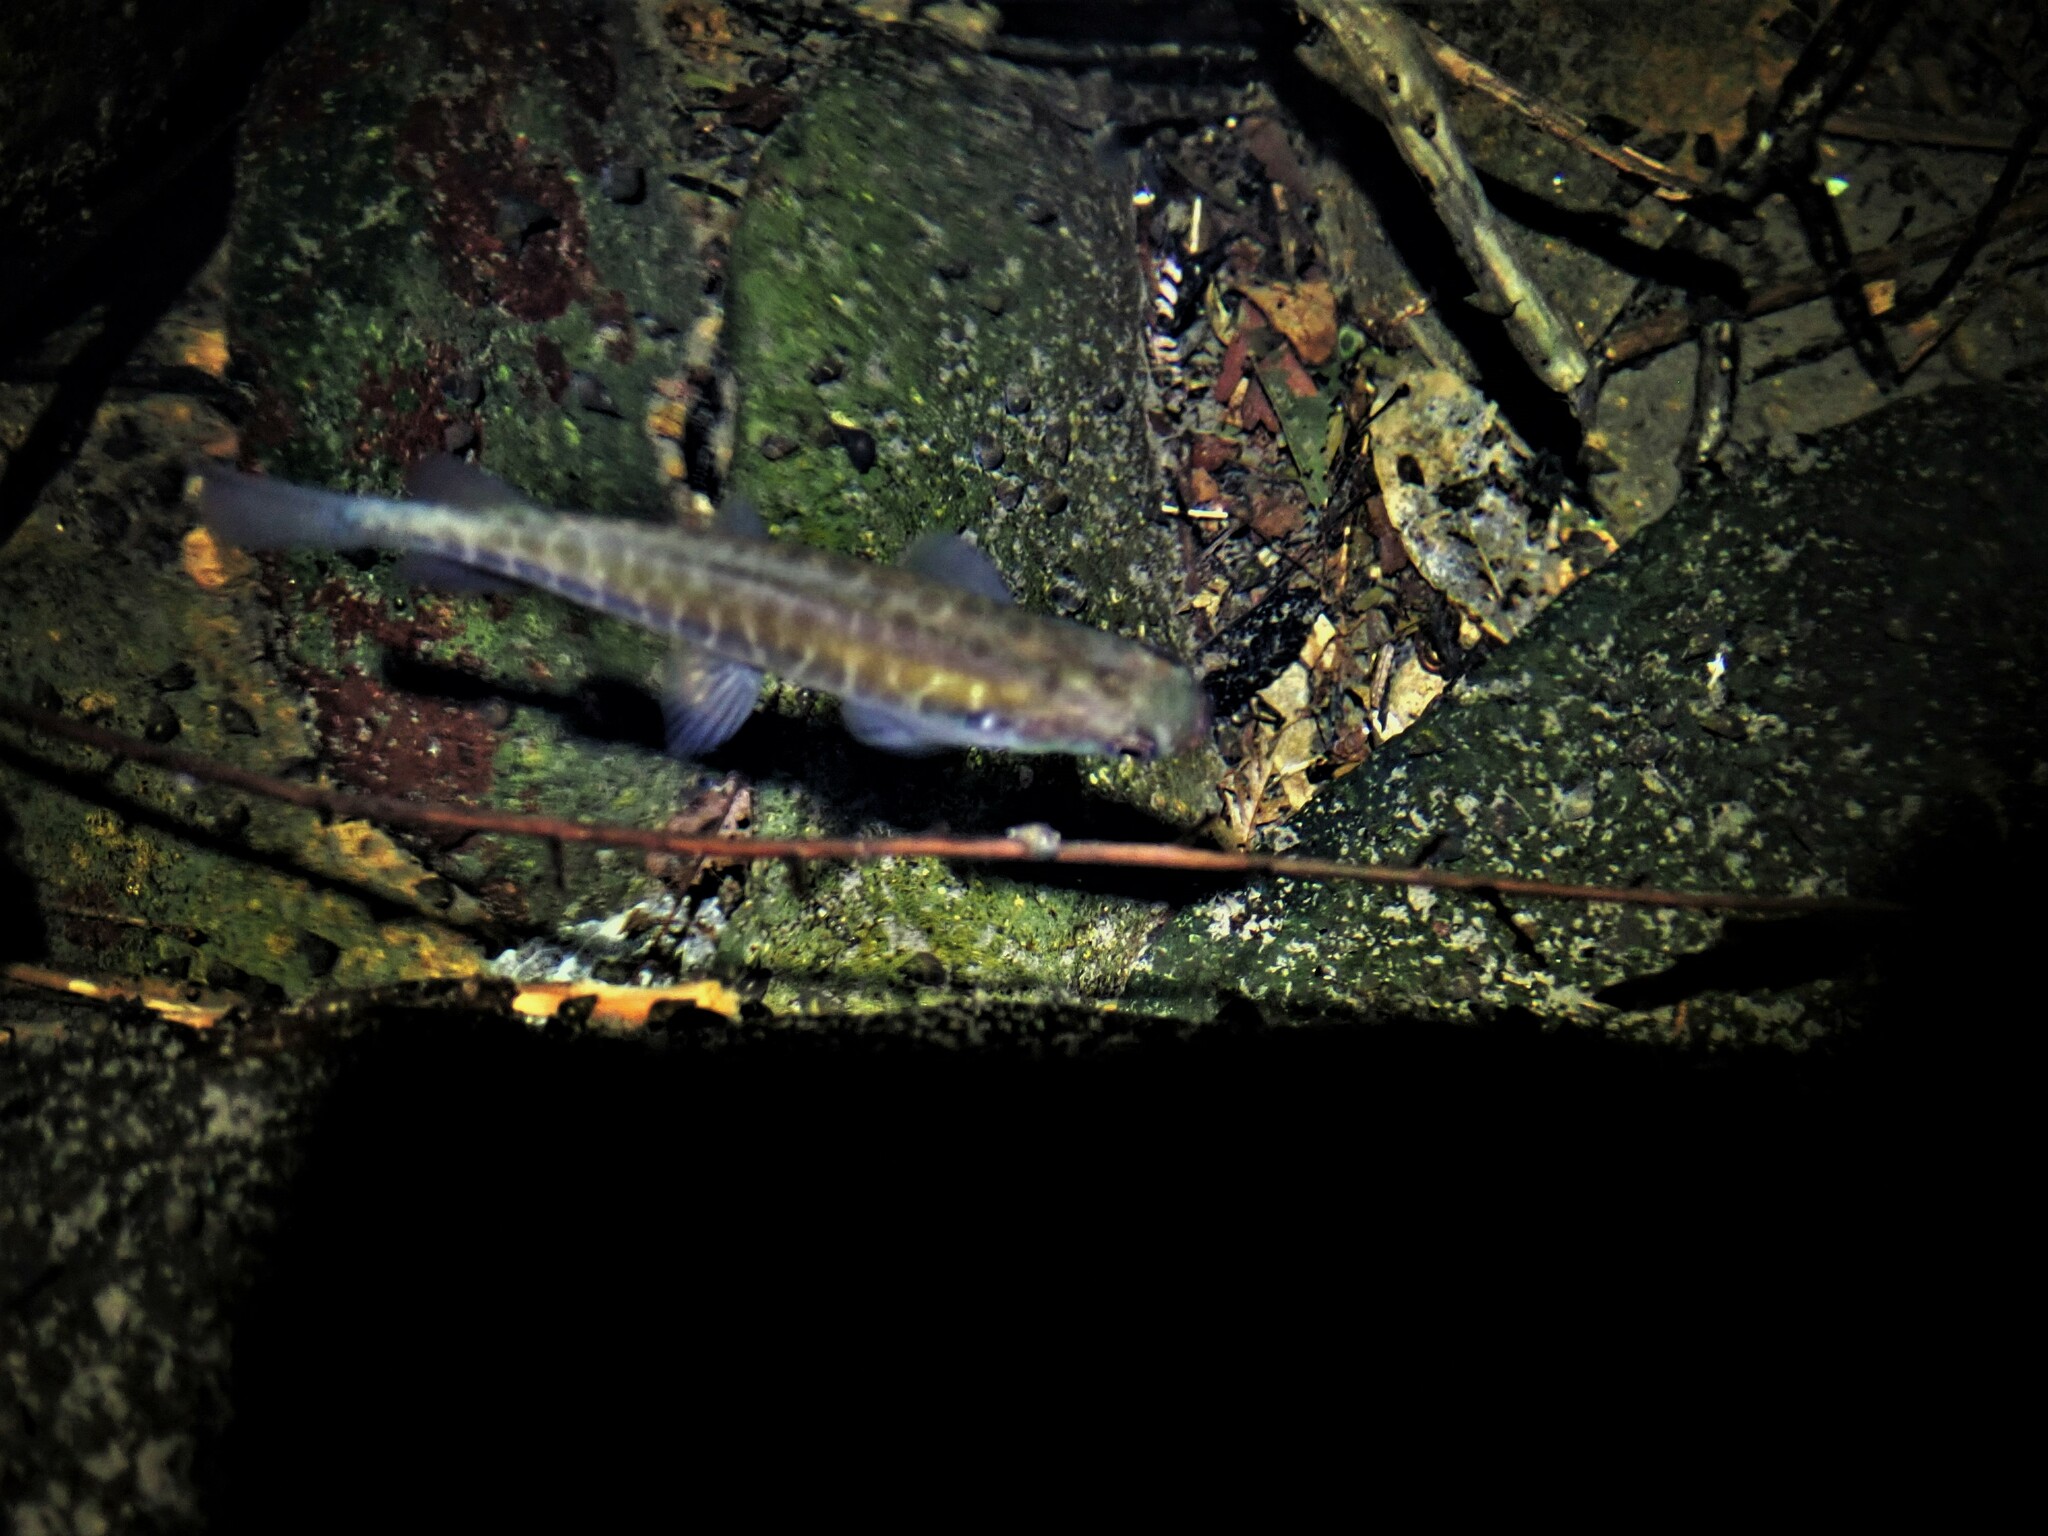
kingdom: Animalia
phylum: Chordata
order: Osmeriformes
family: Galaxiidae
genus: Galaxias
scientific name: Galaxias fasciatus
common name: Banded kokopu
